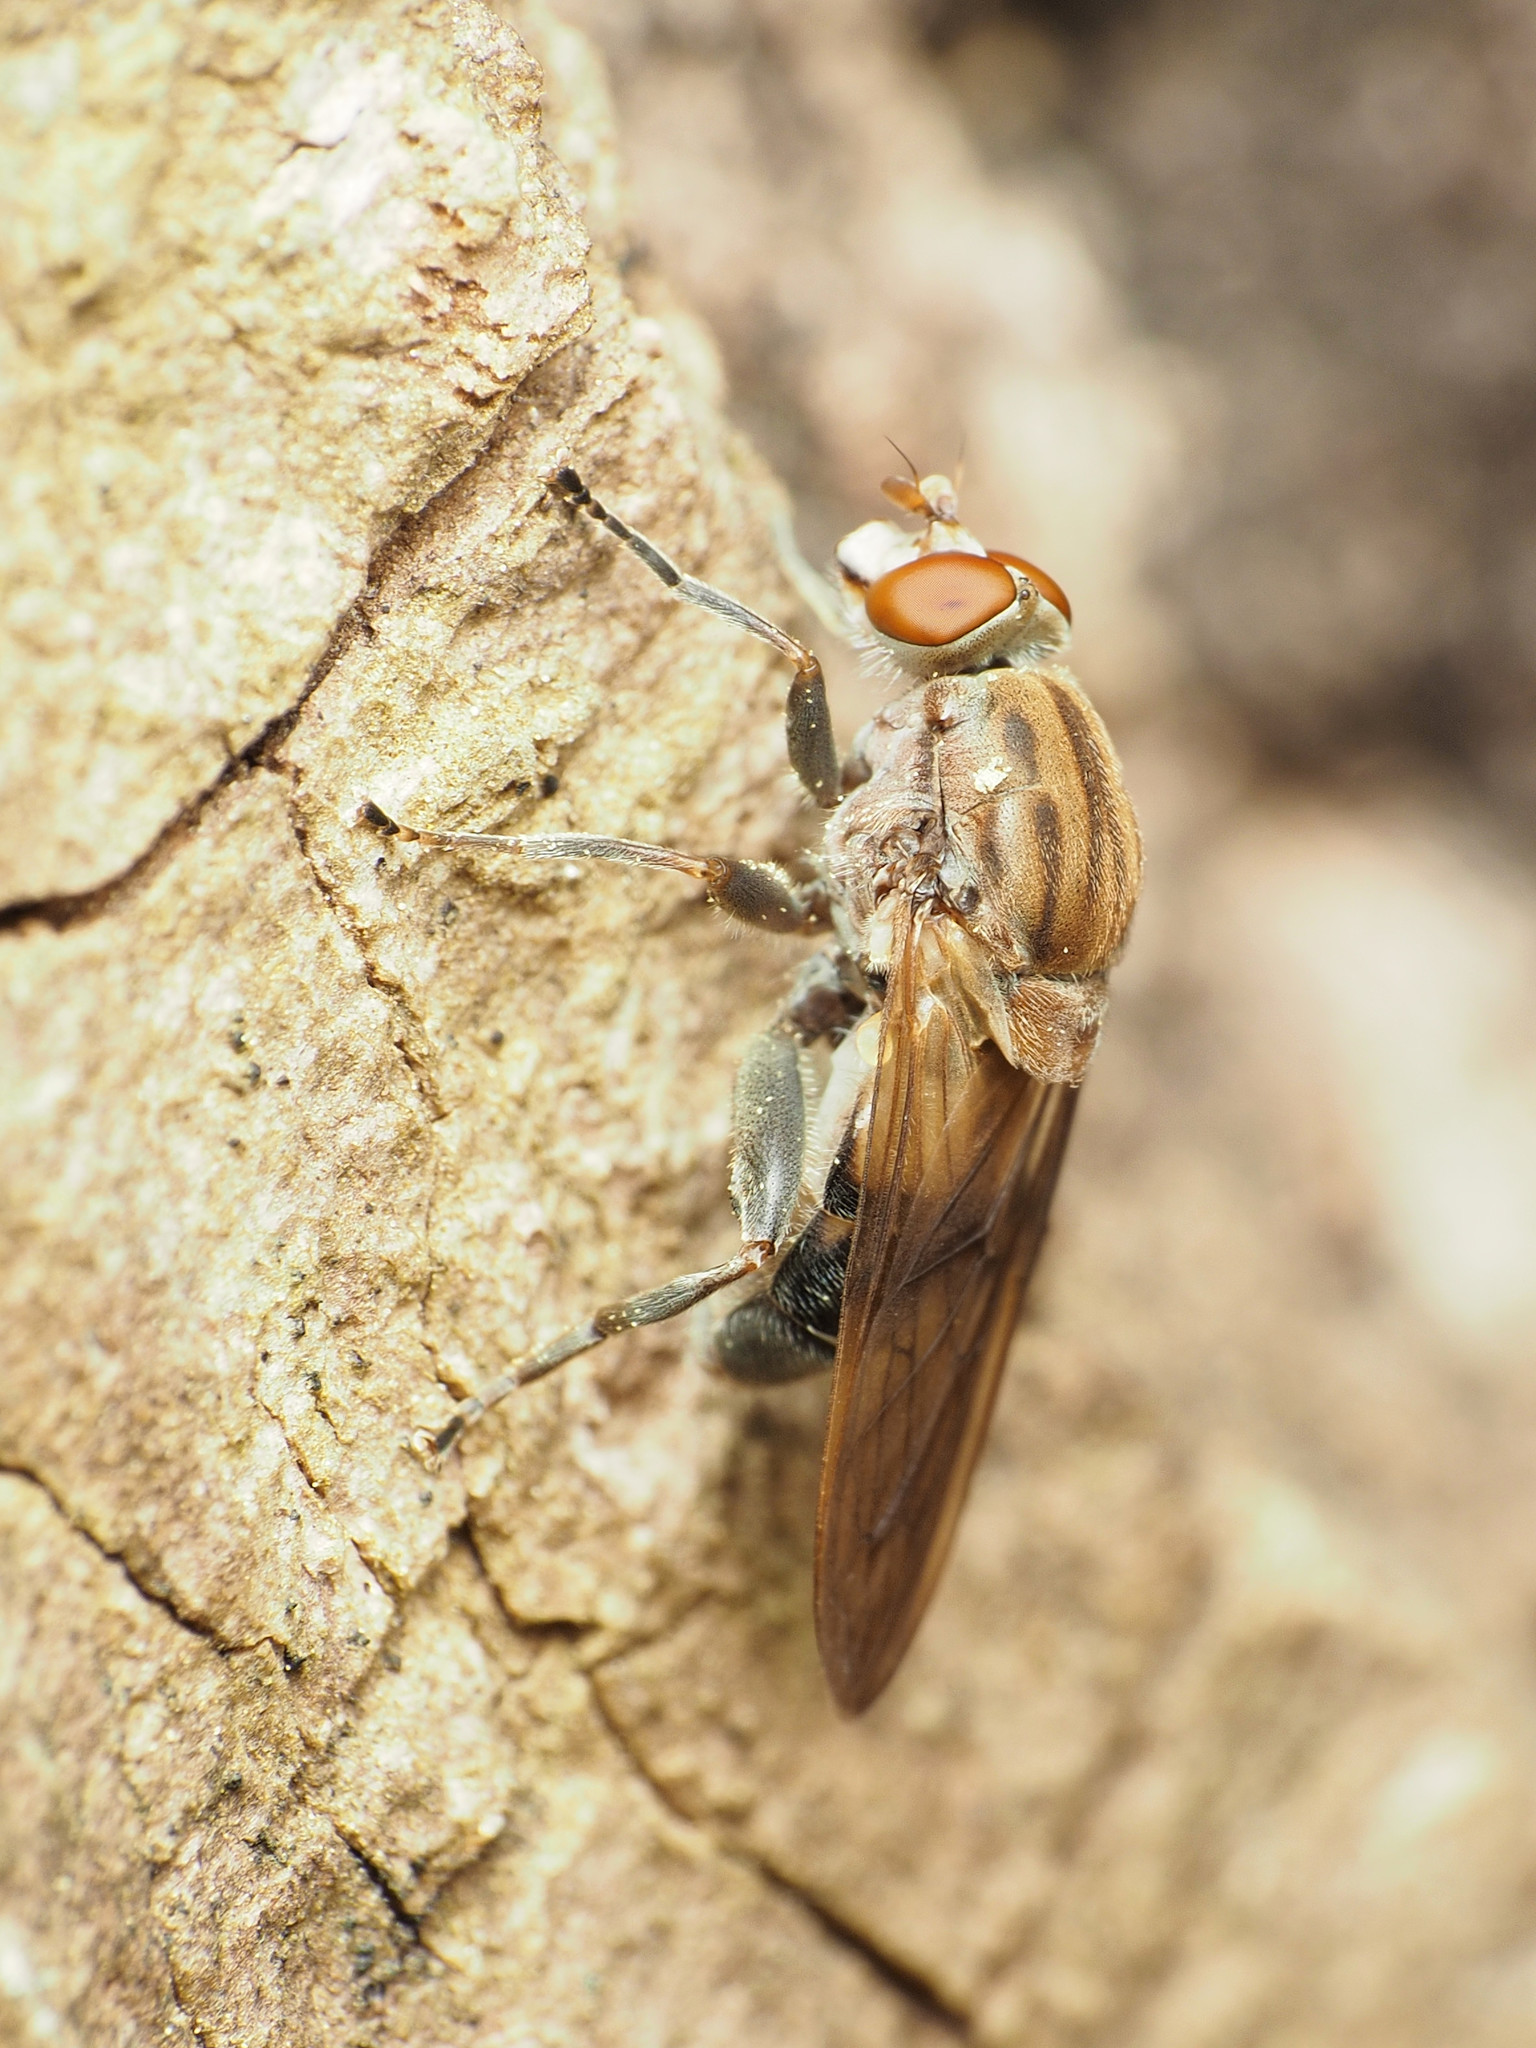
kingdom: Animalia
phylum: Arthropoda
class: Insecta
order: Diptera
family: Syrphidae
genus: Brachyopa
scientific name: Brachyopa vacua
